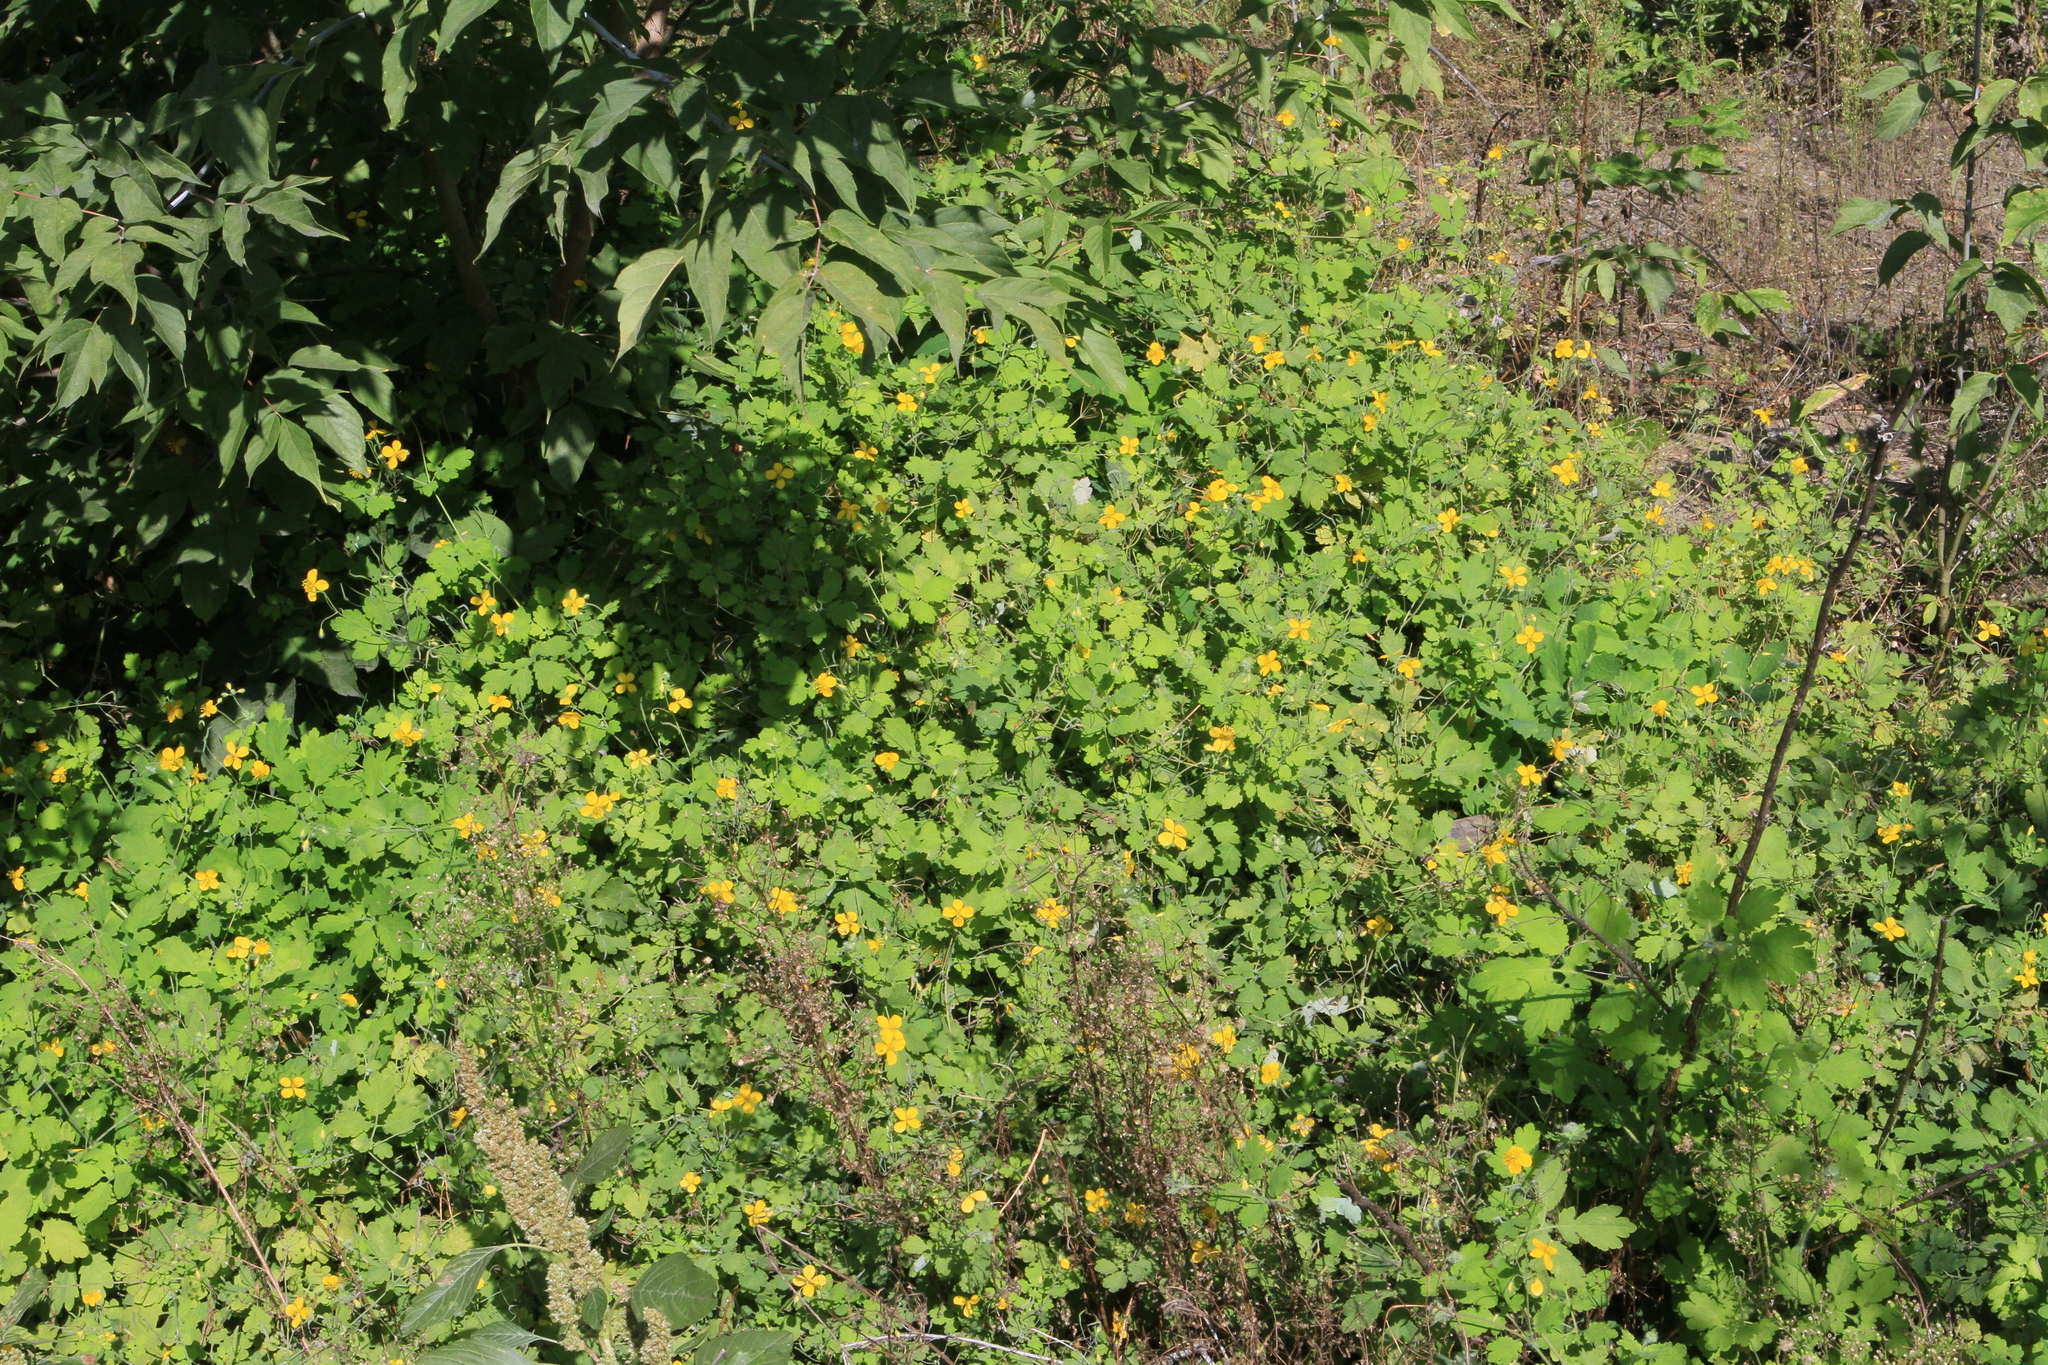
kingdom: Plantae
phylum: Tracheophyta
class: Magnoliopsida
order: Ranunculales
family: Papaveraceae
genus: Chelidonium
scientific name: Chelidonium majus
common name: Greater celandine
